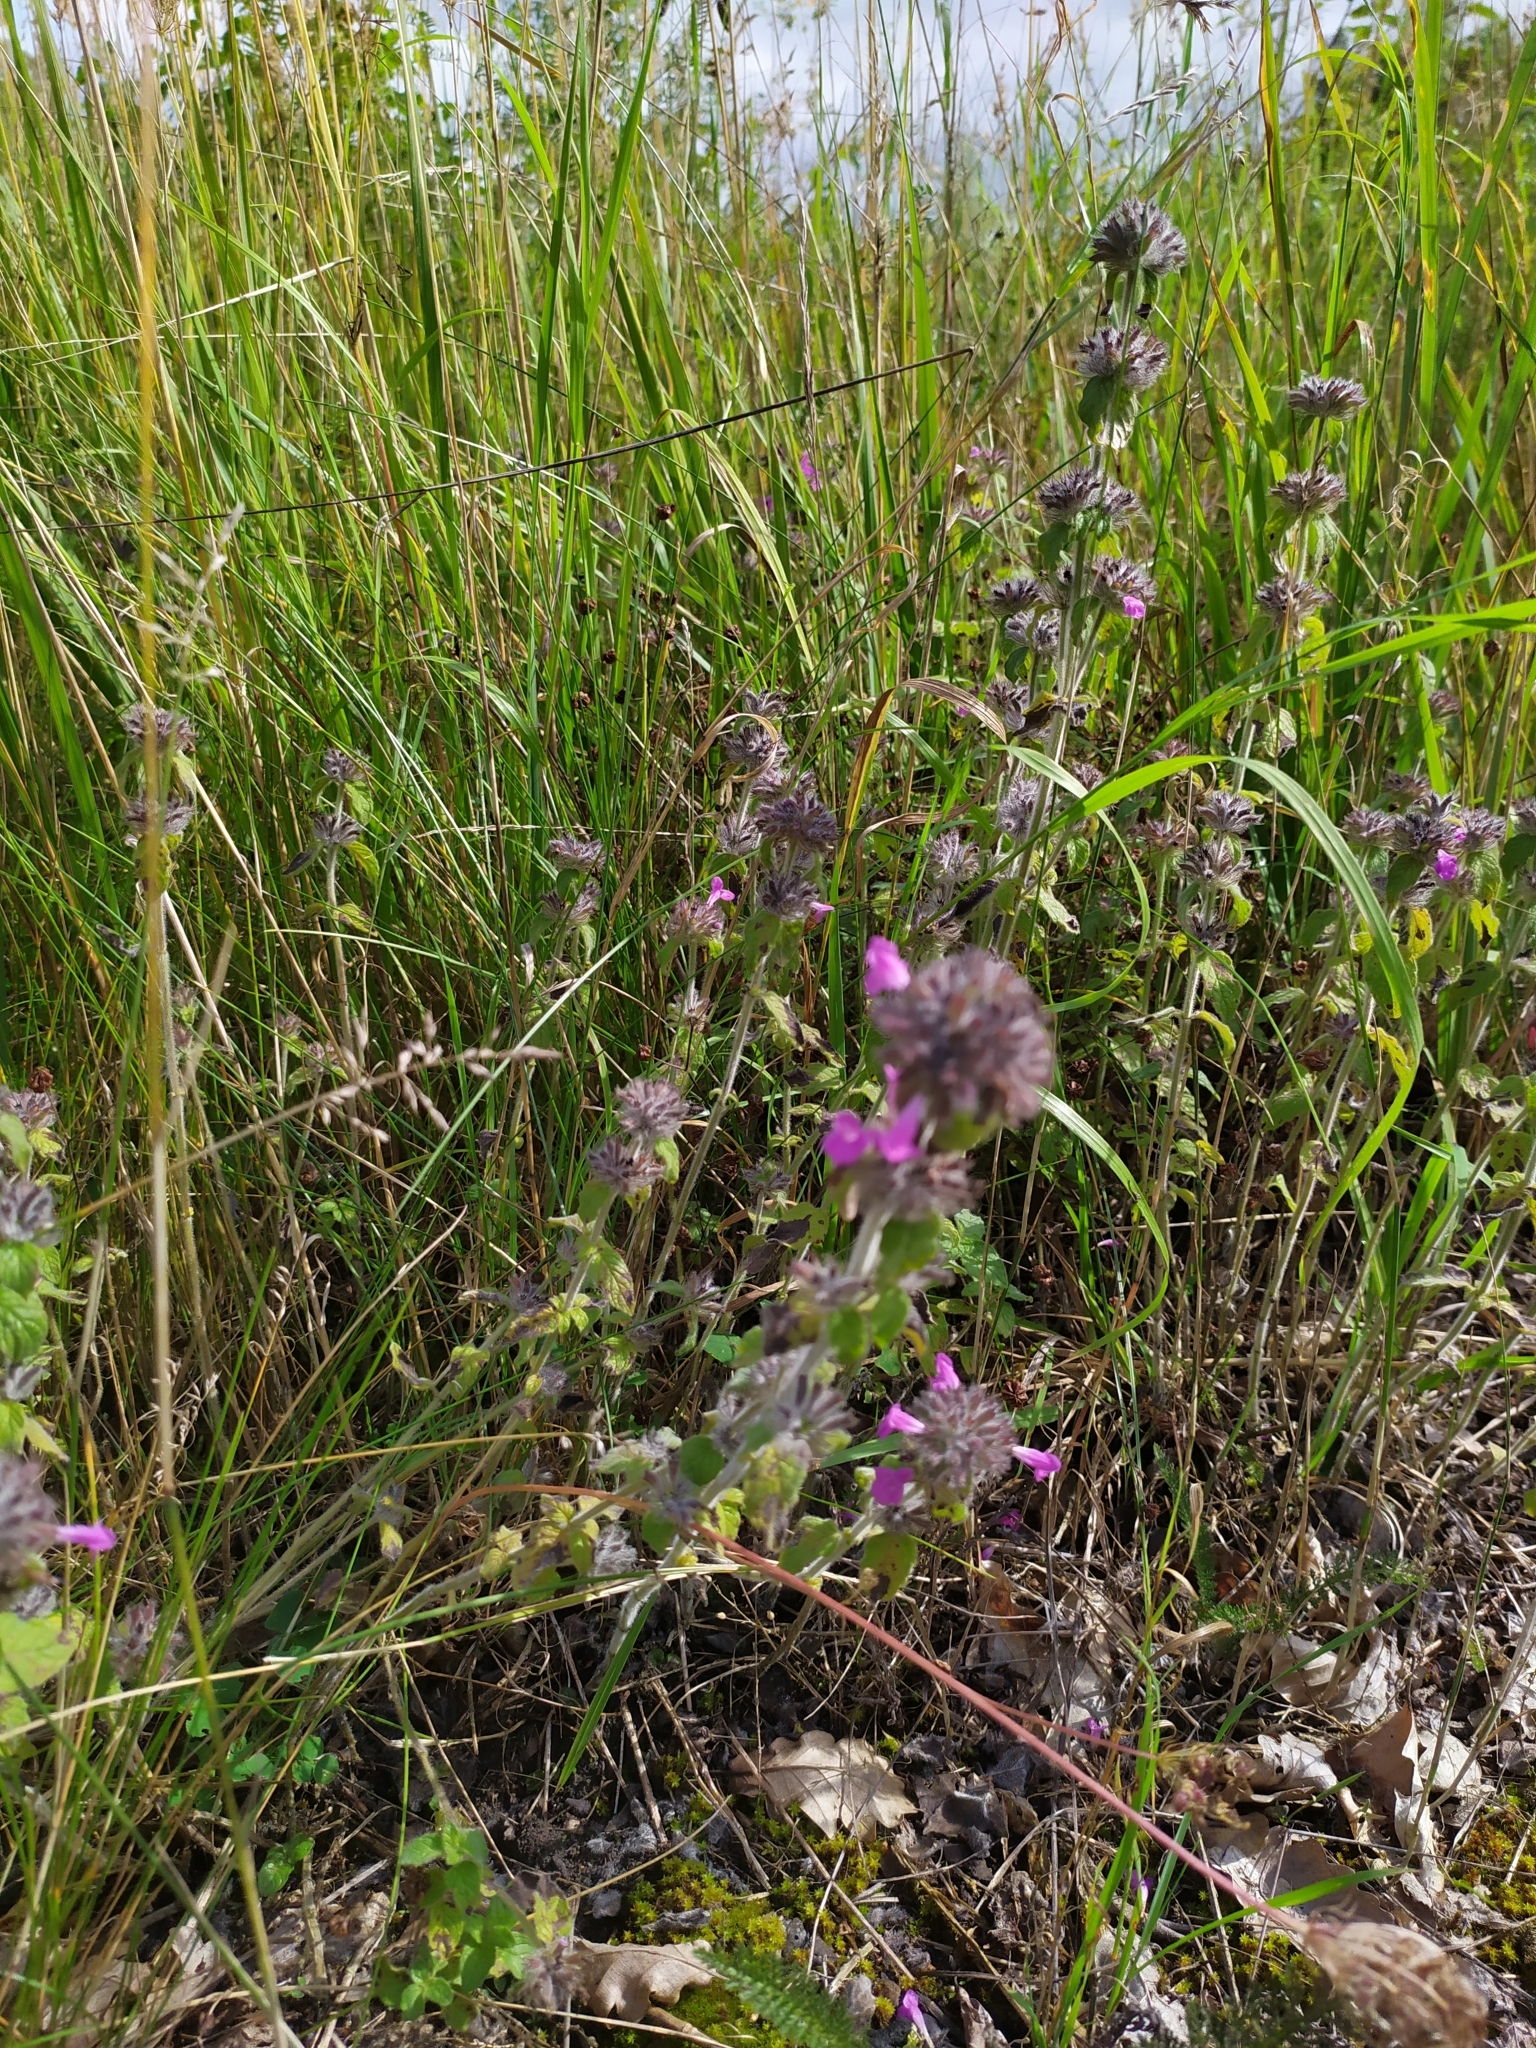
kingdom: Plantae
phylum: Tracheophyta
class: Magnoliopsida
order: Lamiales
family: Lamiaceae
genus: Clinopodium
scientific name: Clinopodium vulgare
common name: Wild basil
